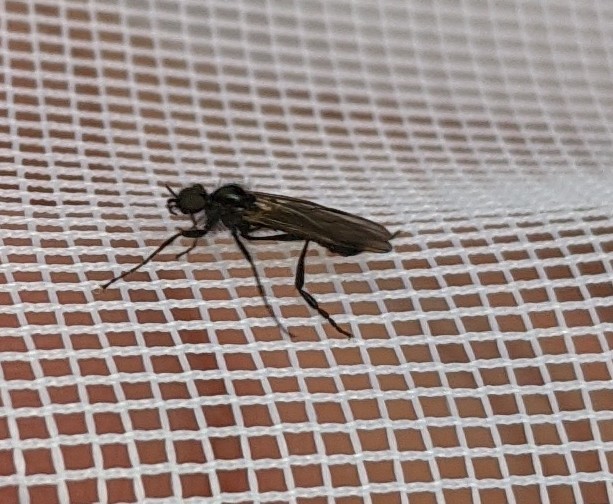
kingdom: Animalia
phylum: Arthropoda
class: Insecta
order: Diptera
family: Bibionidae
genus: Bibio
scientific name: Bibio slossonae
